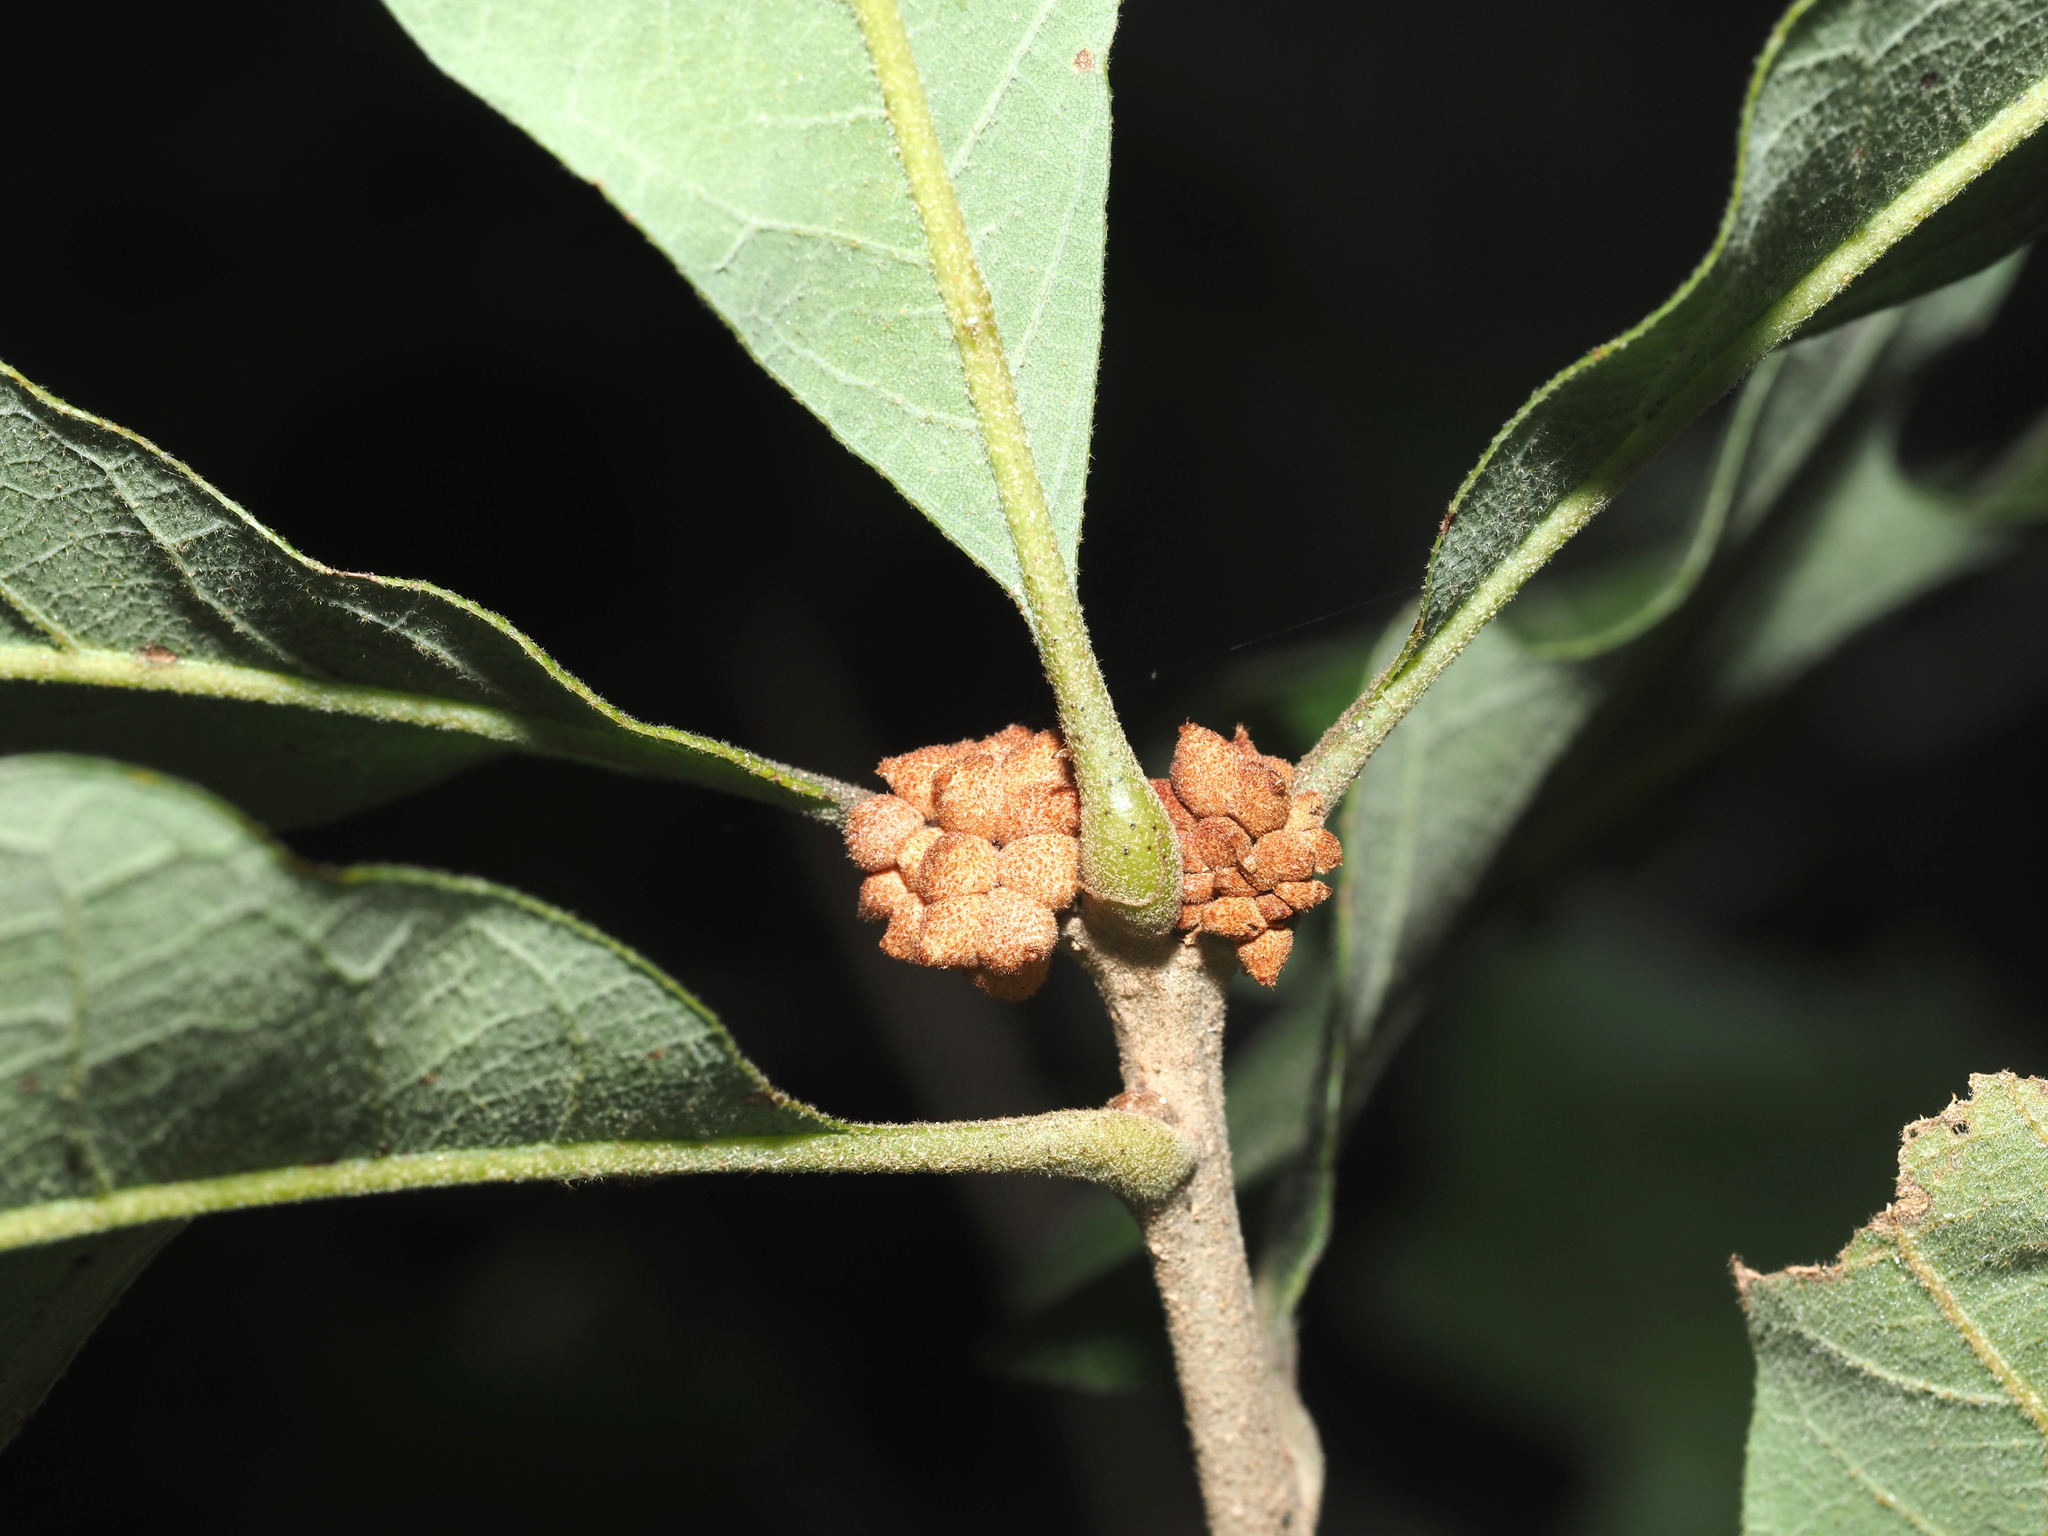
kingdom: Animalia
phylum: Arthropoda
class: Insecta
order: Hymenoptera
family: Cynipidae
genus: Andricus
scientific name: Andricus
